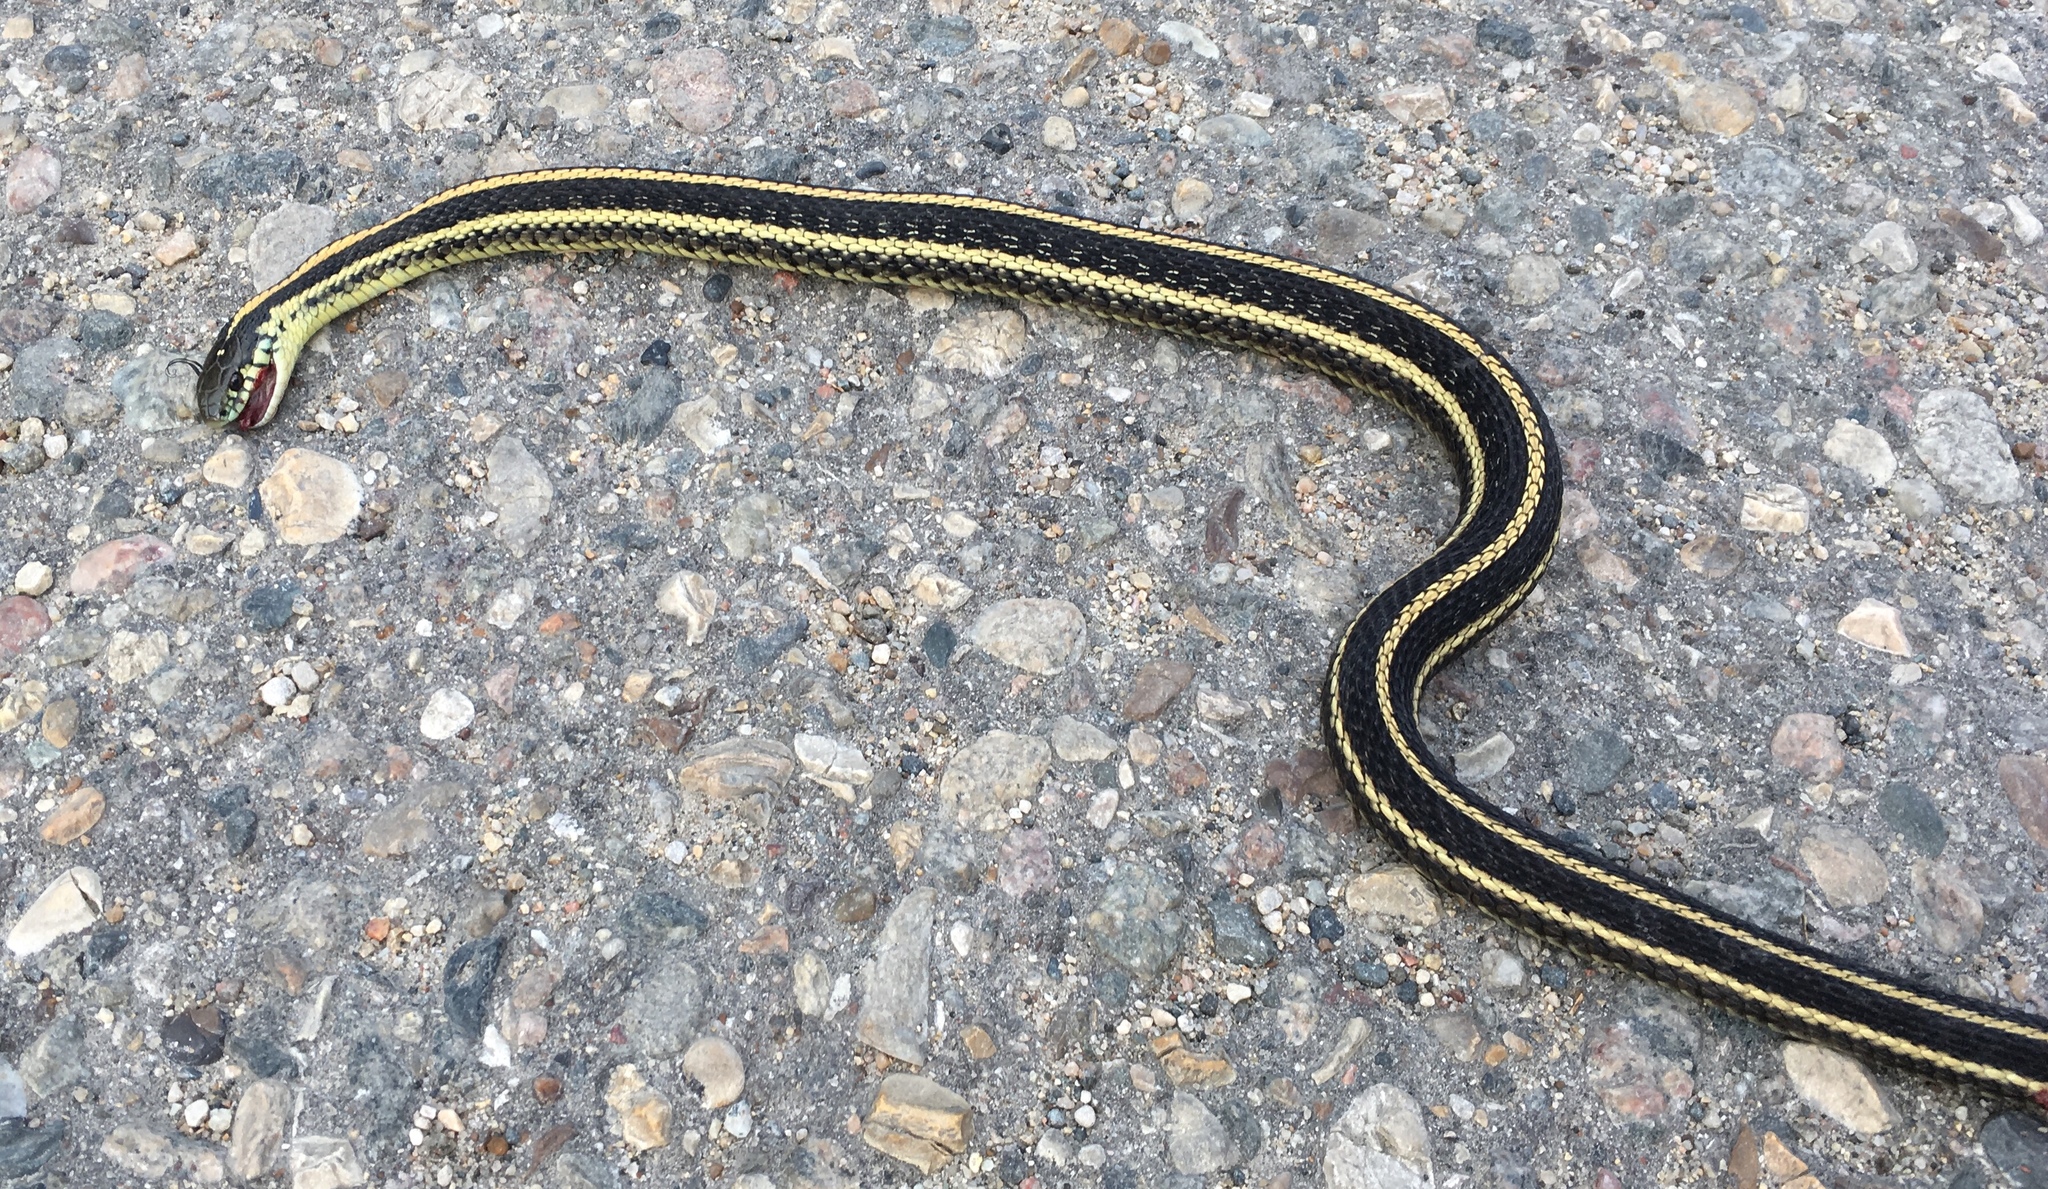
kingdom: Animalia
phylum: Chordata
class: Squamata
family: Colubridae
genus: Thamnophis
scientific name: Thamnophis radix
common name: Plains garter snake
